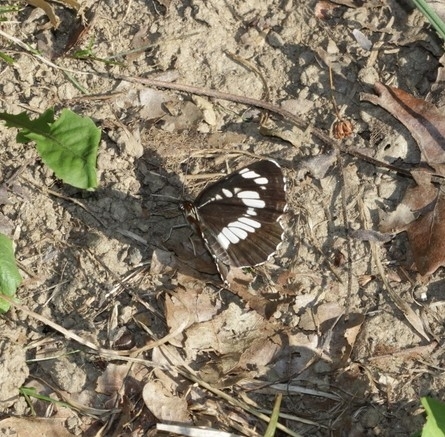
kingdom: Animalia
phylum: Arthropoda
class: Insecta
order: Lepidoptera
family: Nymphalidae
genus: Neptis
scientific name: Neptis rivularis
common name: Hungarian glider
